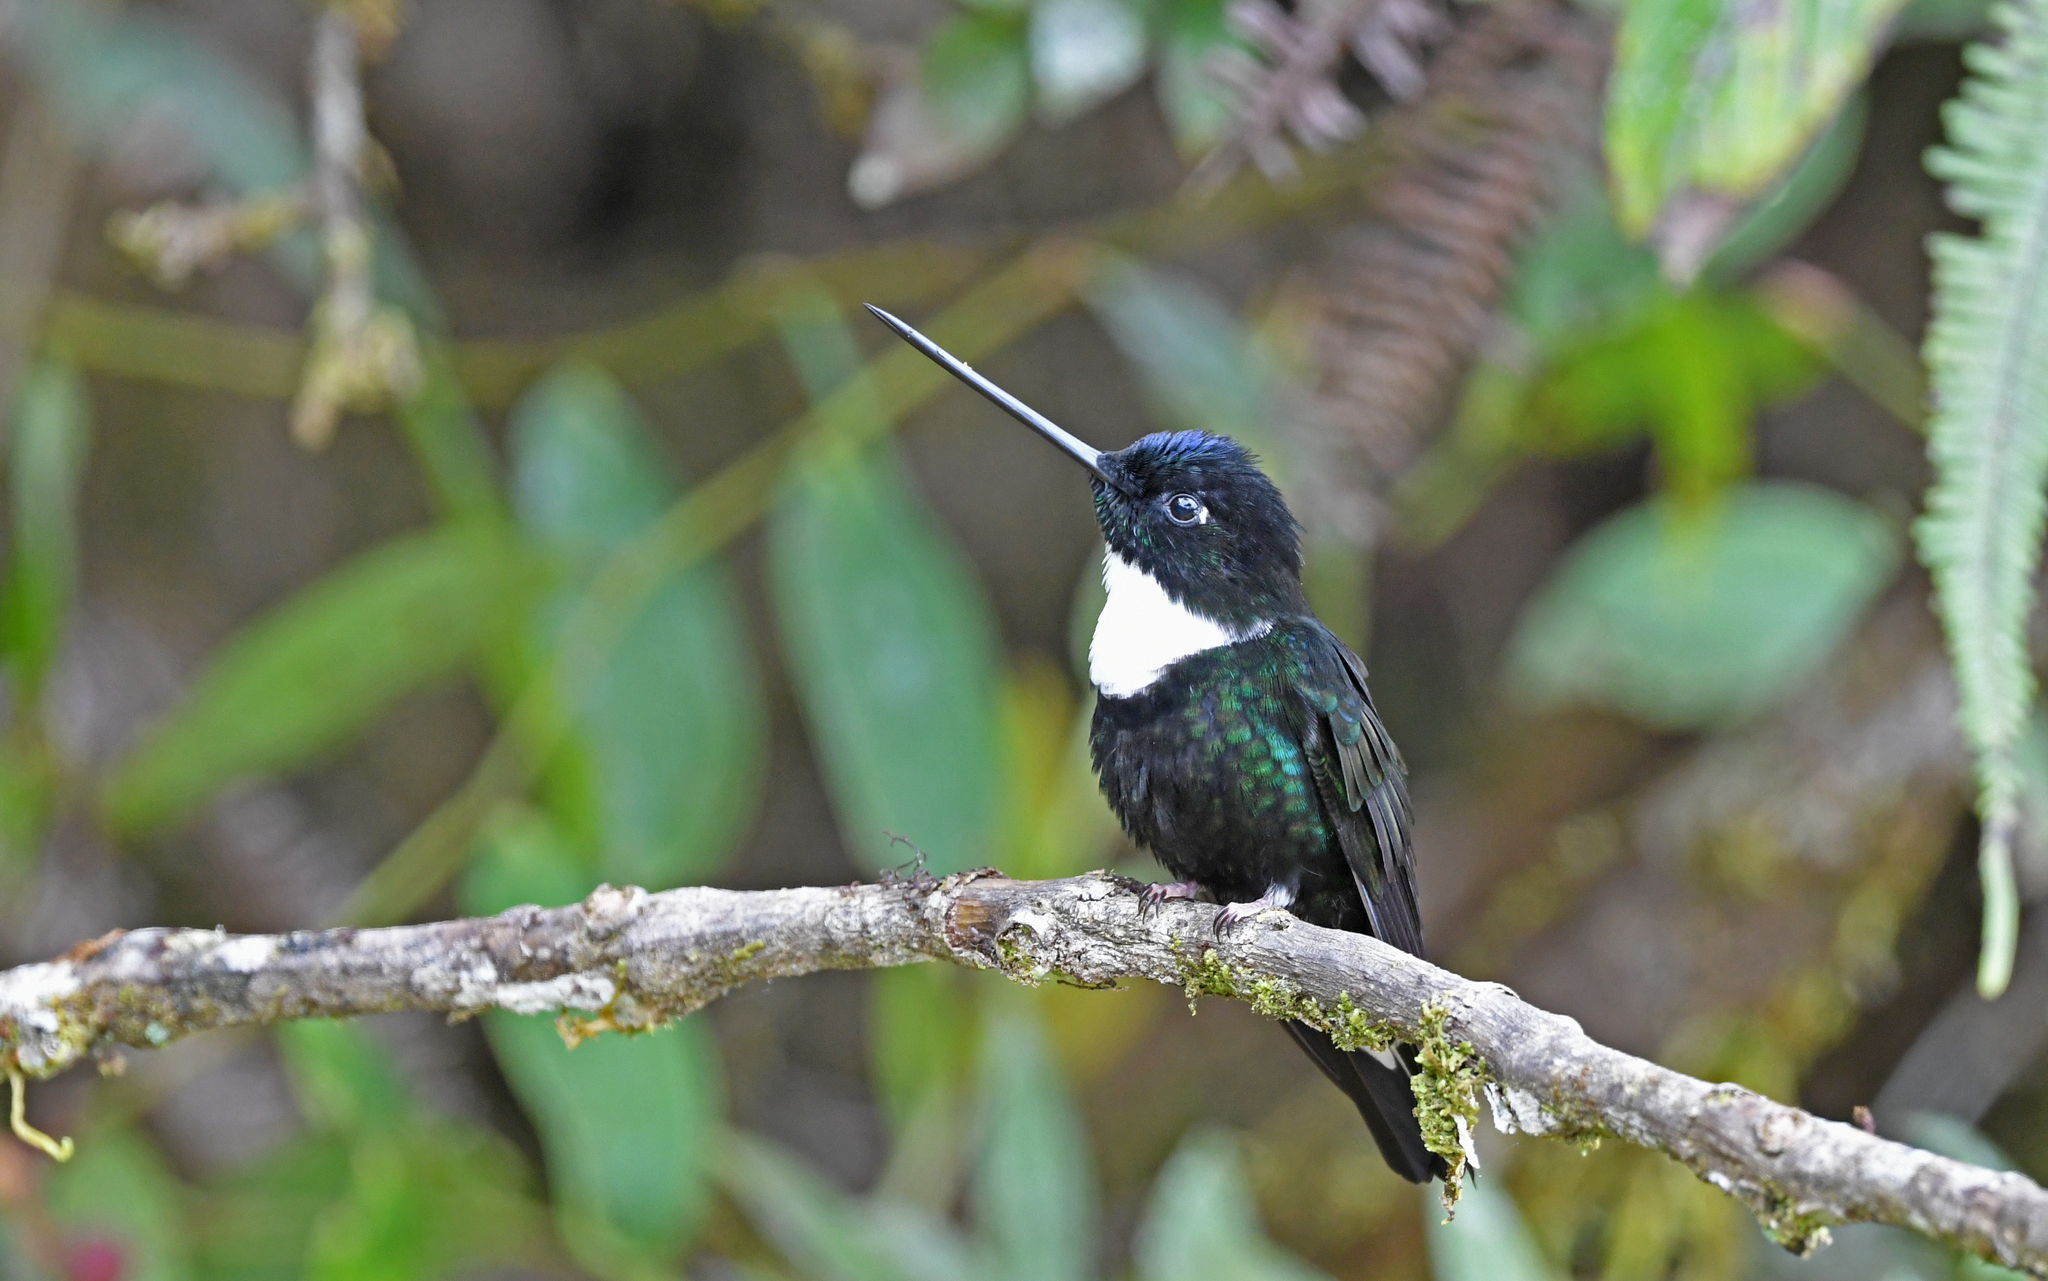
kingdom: Animalia
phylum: Chordata
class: Aves
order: Apodiformes
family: Trochilidae
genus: Coeligena
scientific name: Coeligena torquata
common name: Collared inca
